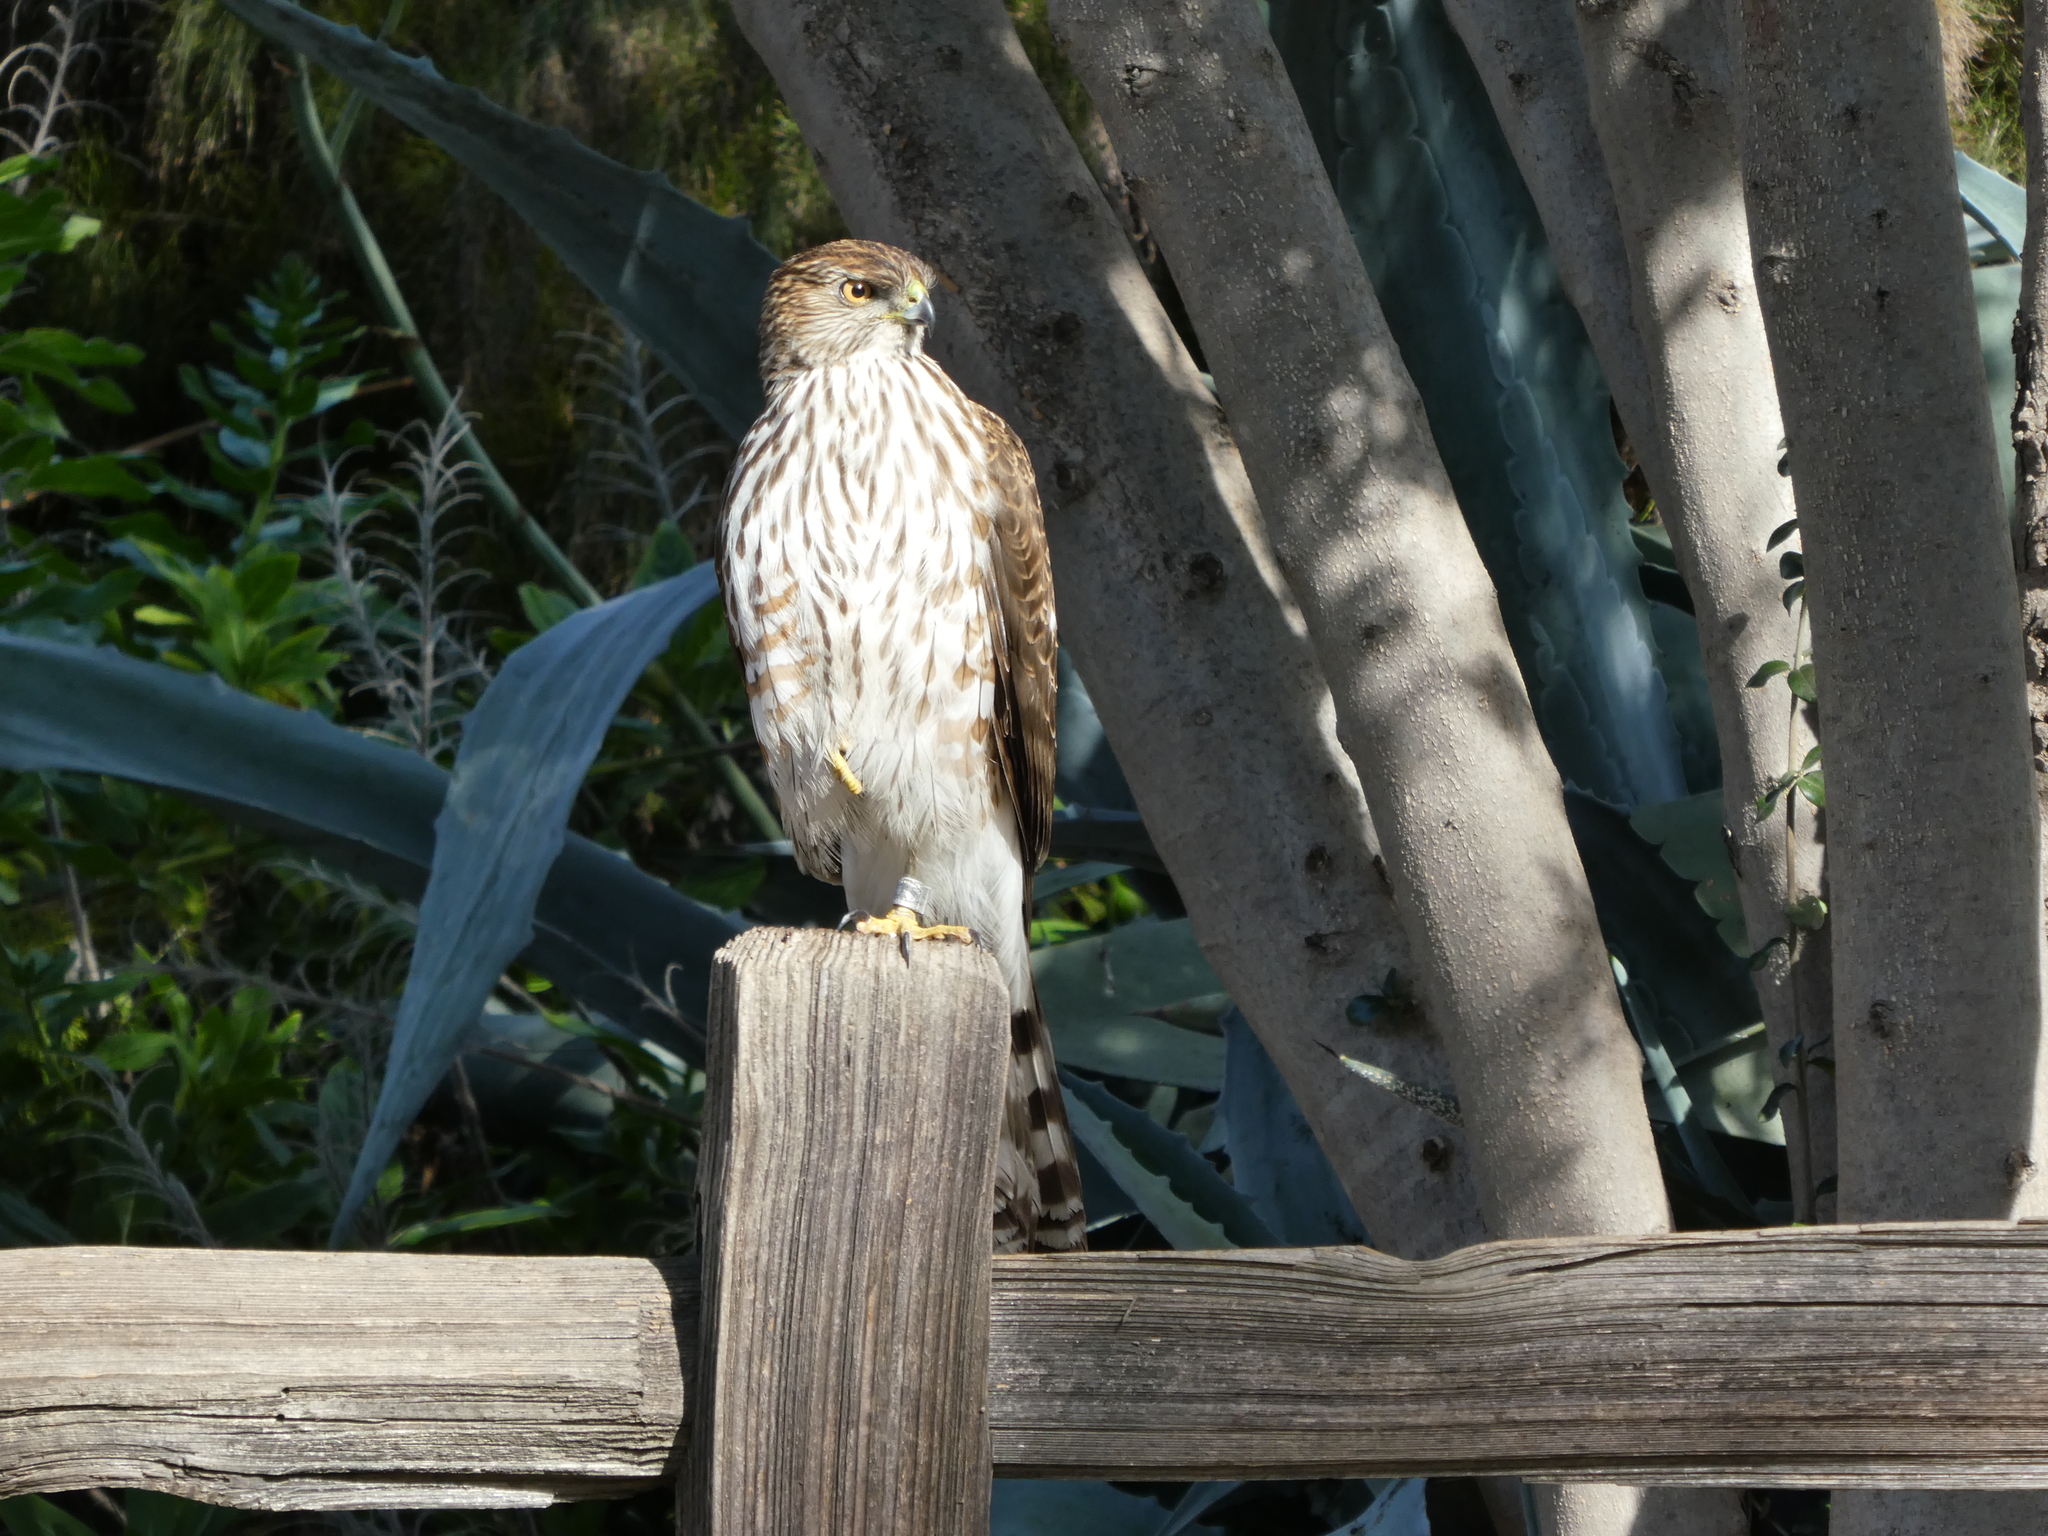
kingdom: Animalia
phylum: Chordata
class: Aves
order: Accipitriformes
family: Accipitridae
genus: Accipiter
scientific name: Accipiter cooperii
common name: Cooper's hawk
